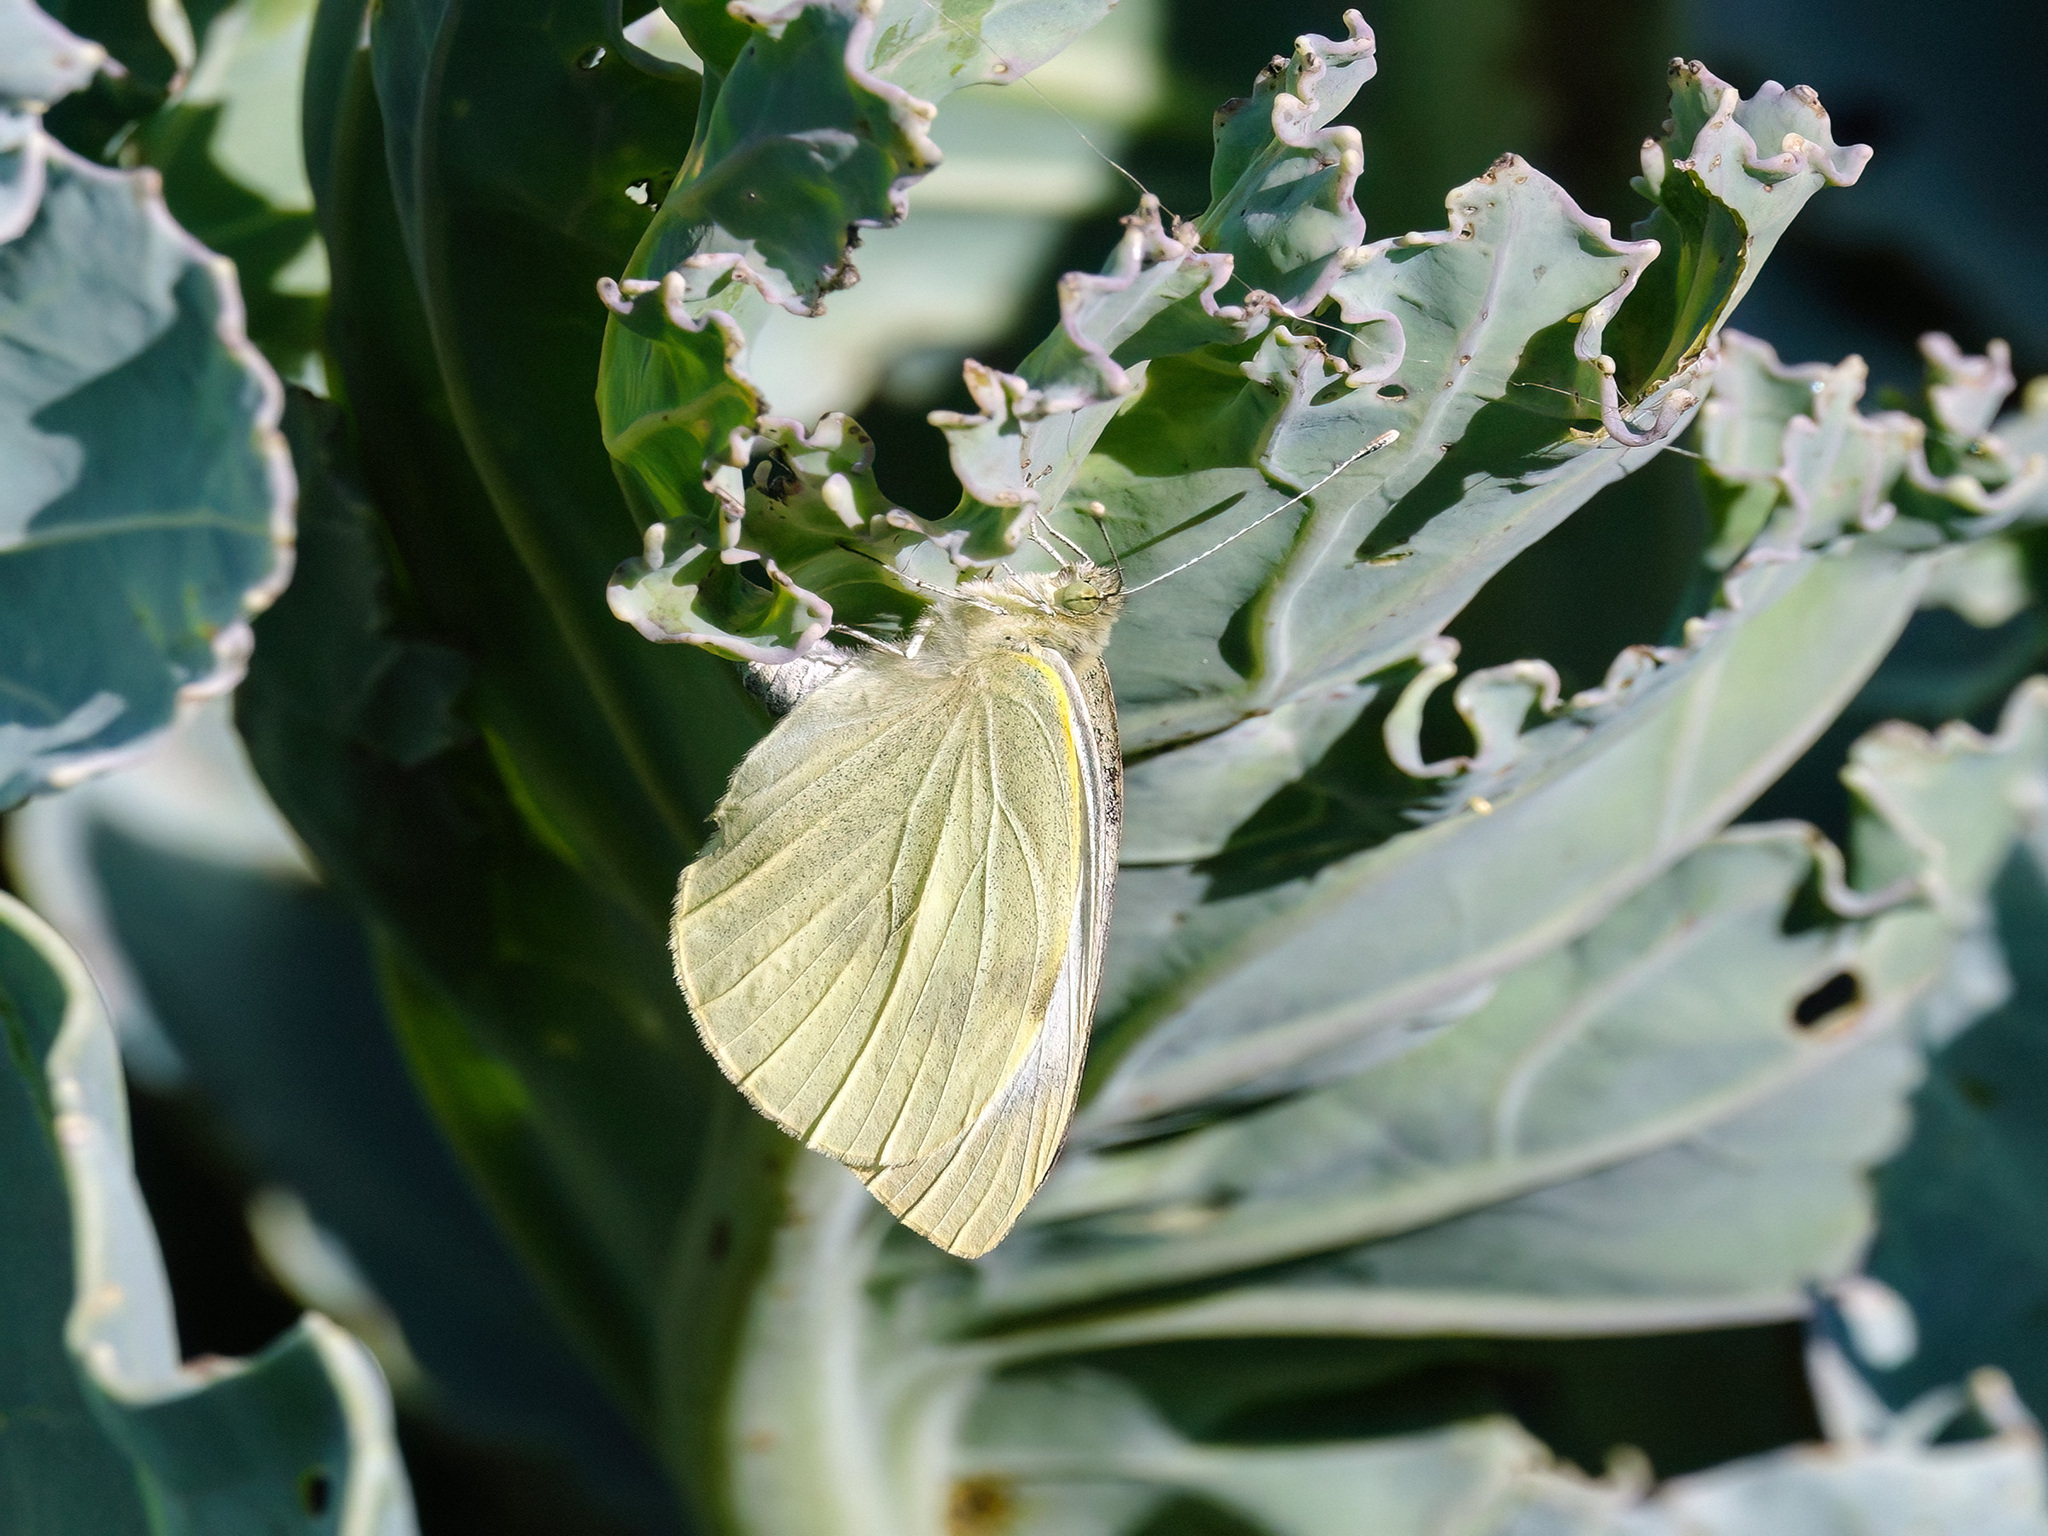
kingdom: Animalia
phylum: Arthropoda
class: Insecta
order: Lepidoptera
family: Pieridae
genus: Pieris
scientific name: Pieris brassicae
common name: Large white
